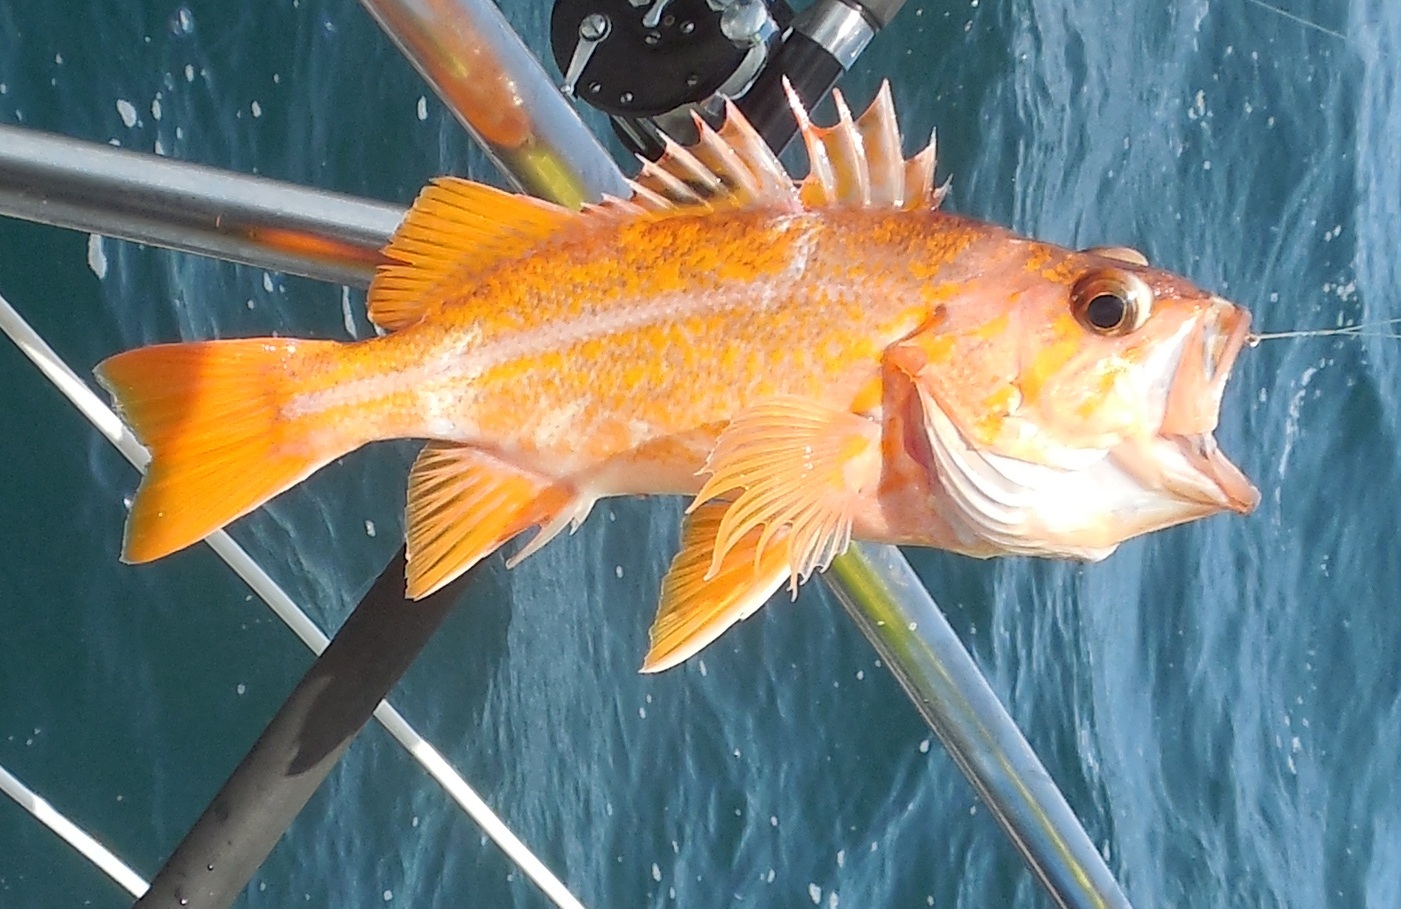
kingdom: Animalia
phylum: Chordata
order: Scorpaeniformes
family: Sebastidae
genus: Sebastes
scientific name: Sebastes pinniger
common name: Canary rockfish
